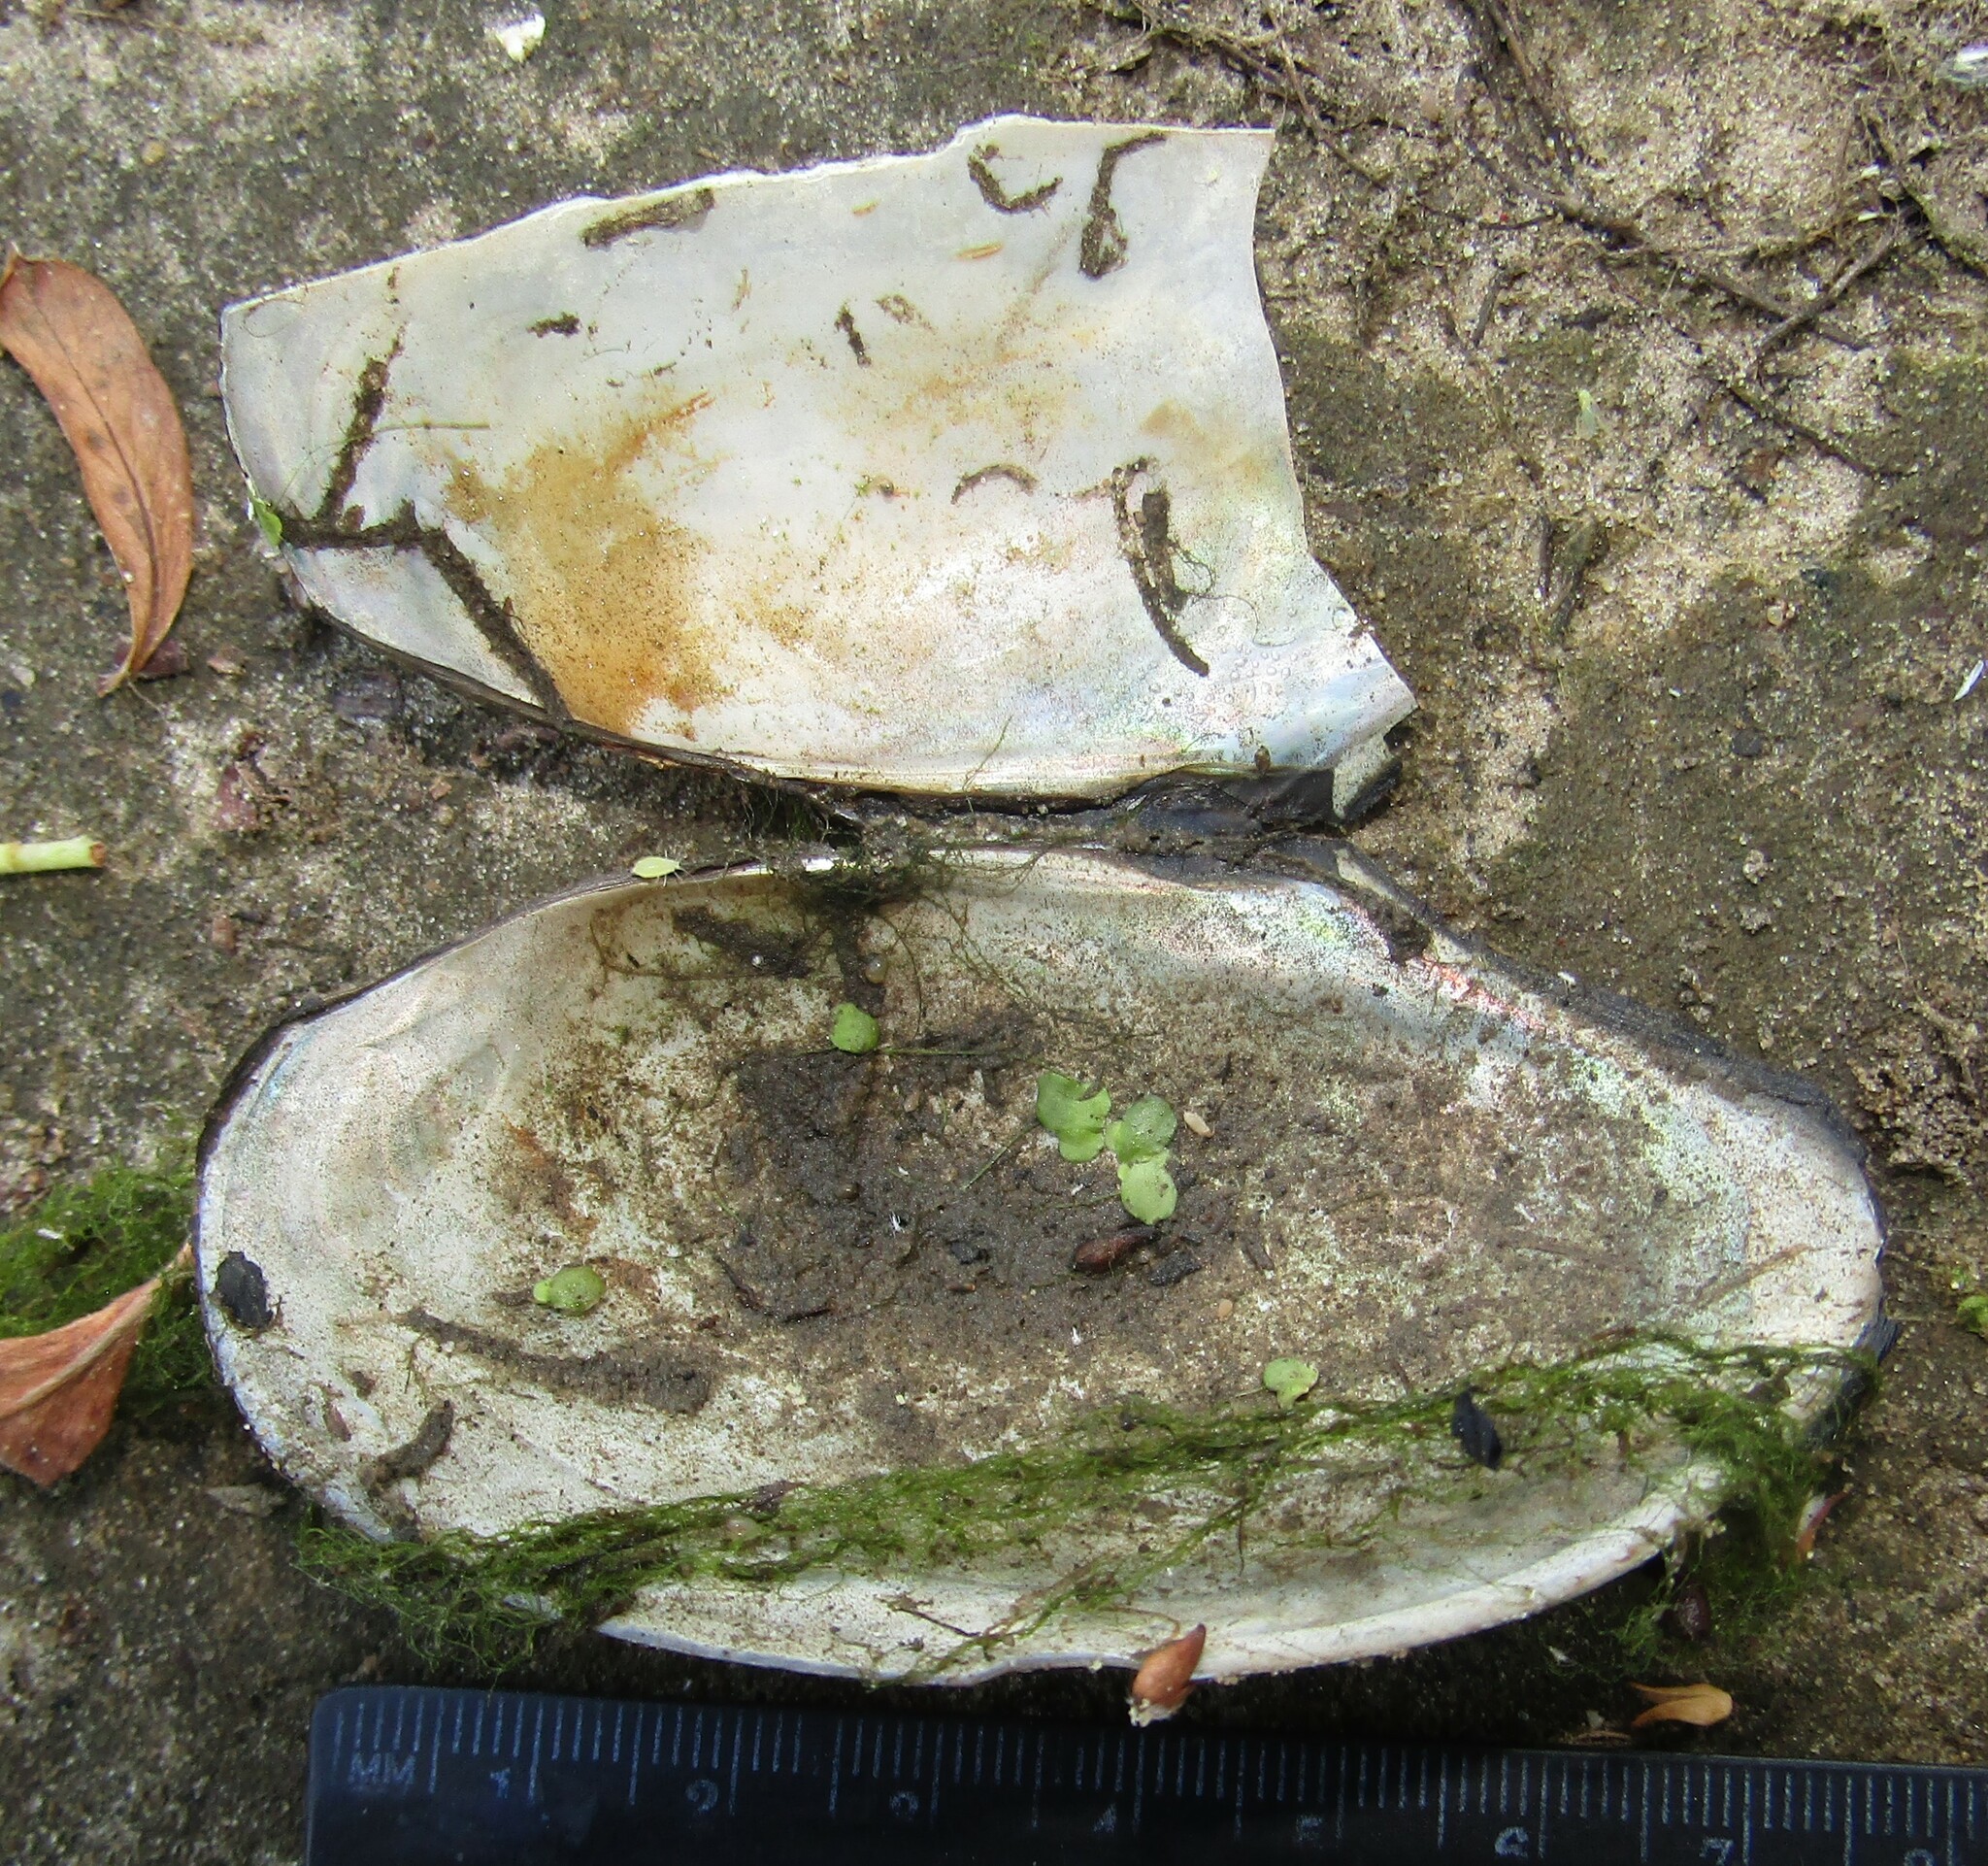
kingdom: Animalia
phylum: Mollusca
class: Bivalvia
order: Unionida
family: Unionidae
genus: Anodonta
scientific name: Anodonta anatina
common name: Duck mussel
